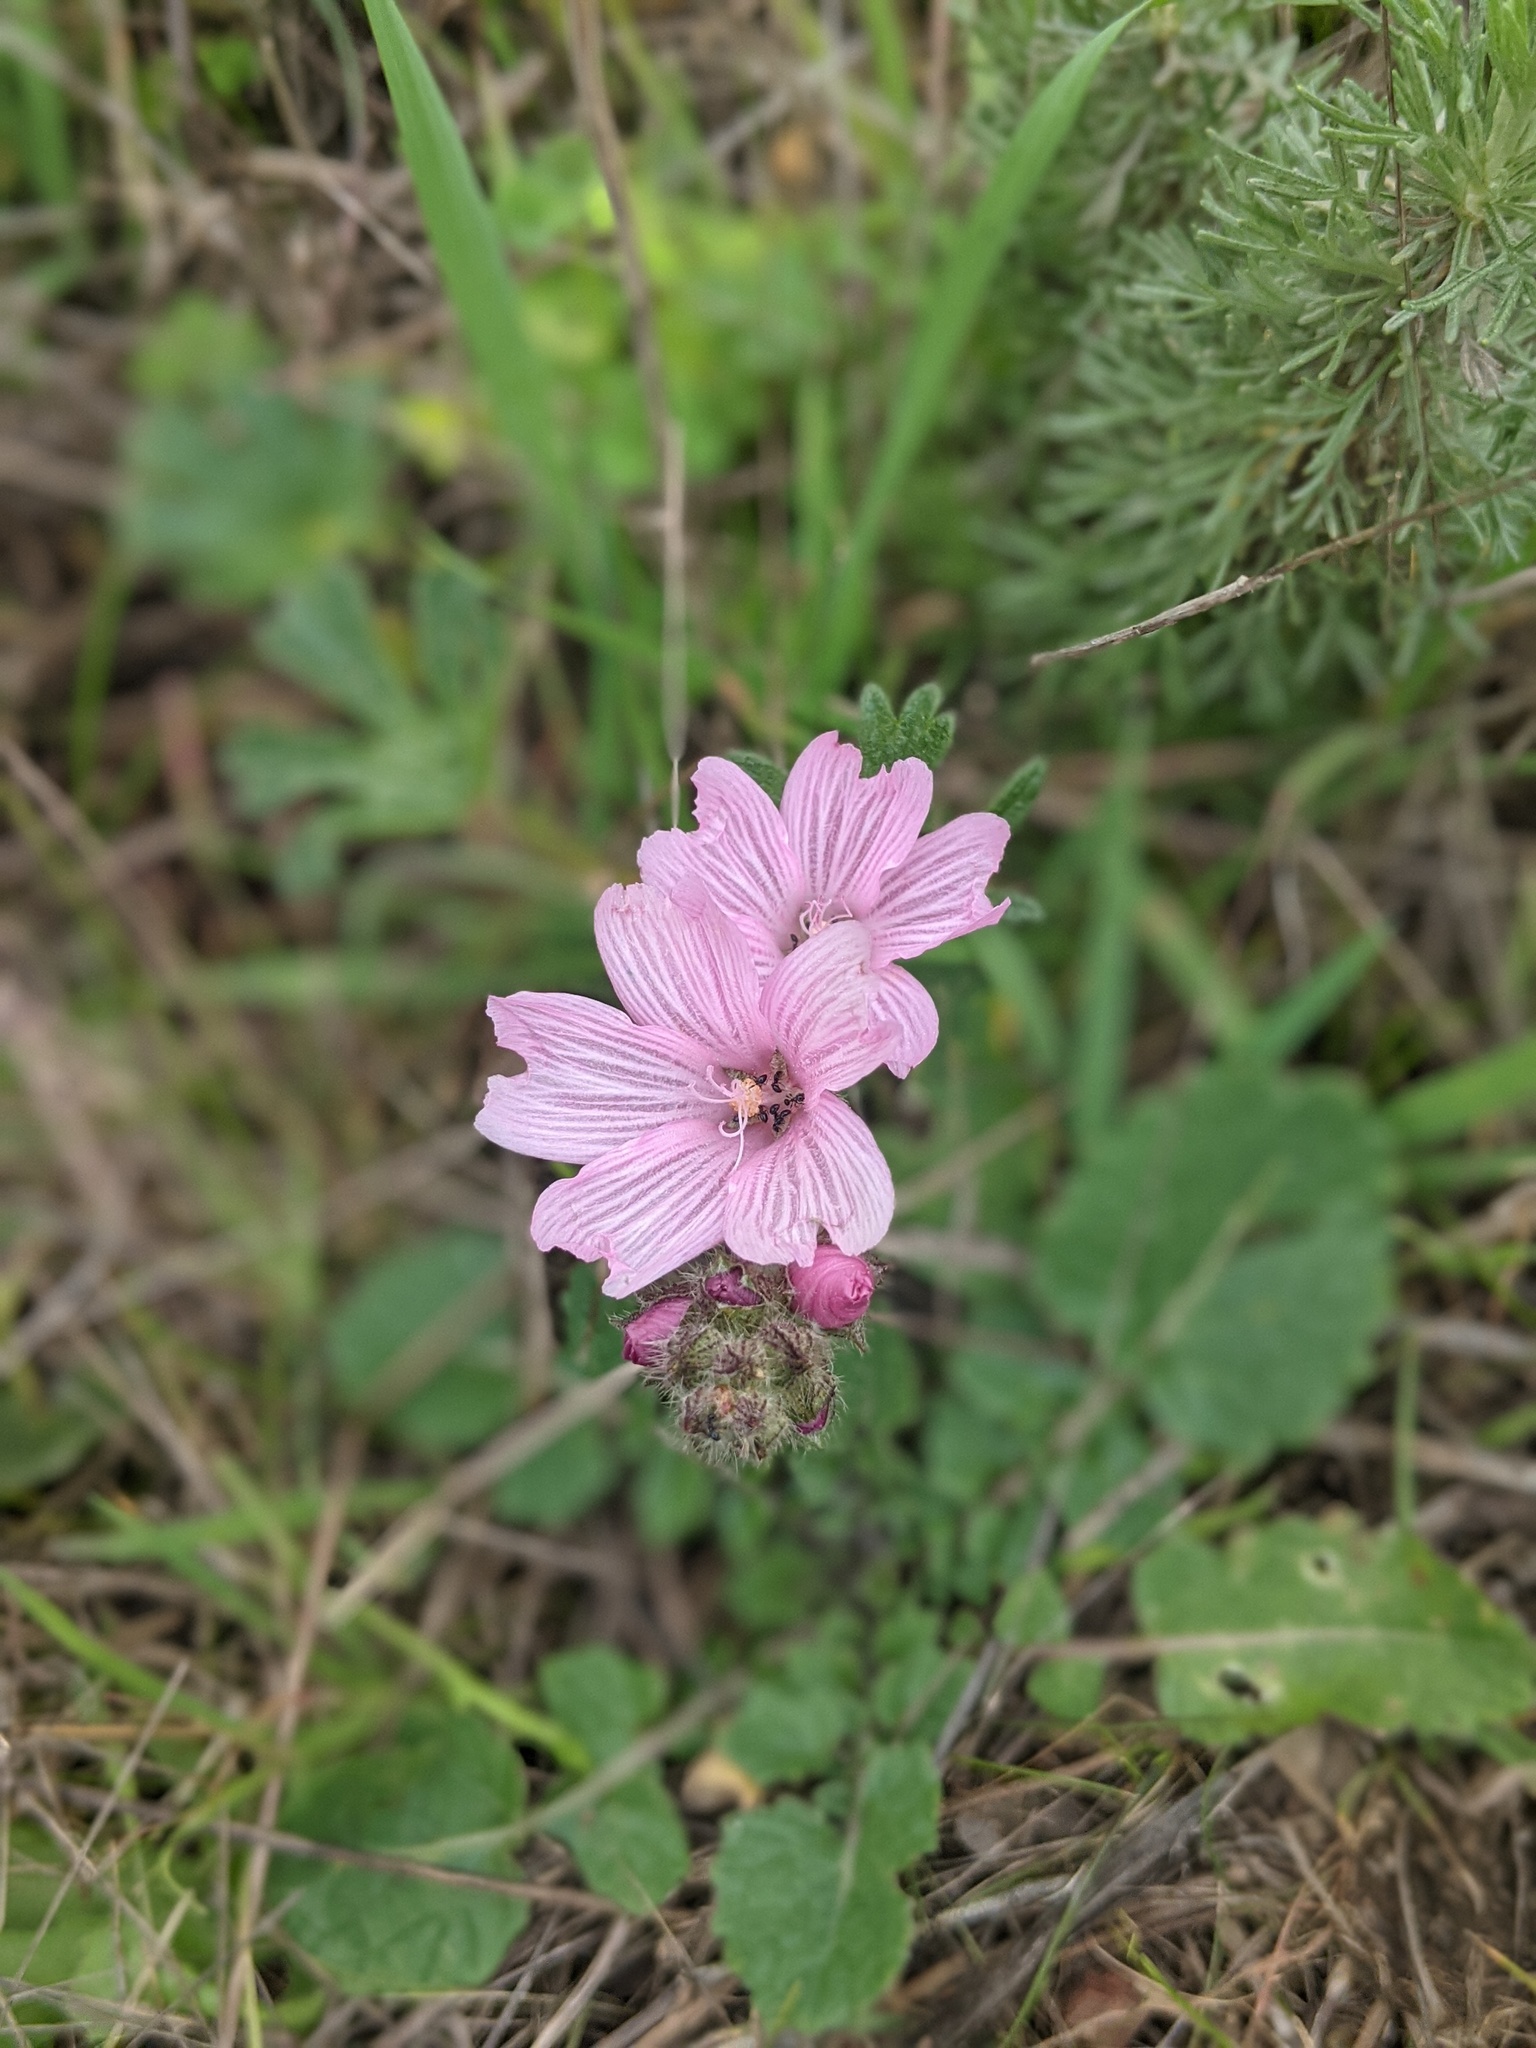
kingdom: Plantae
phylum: Tracheophyta
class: Magnoliopsida
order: Malvales
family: Malvaceae
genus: Sidalcea
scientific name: Sidalcea malviflora
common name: Greek mallow
